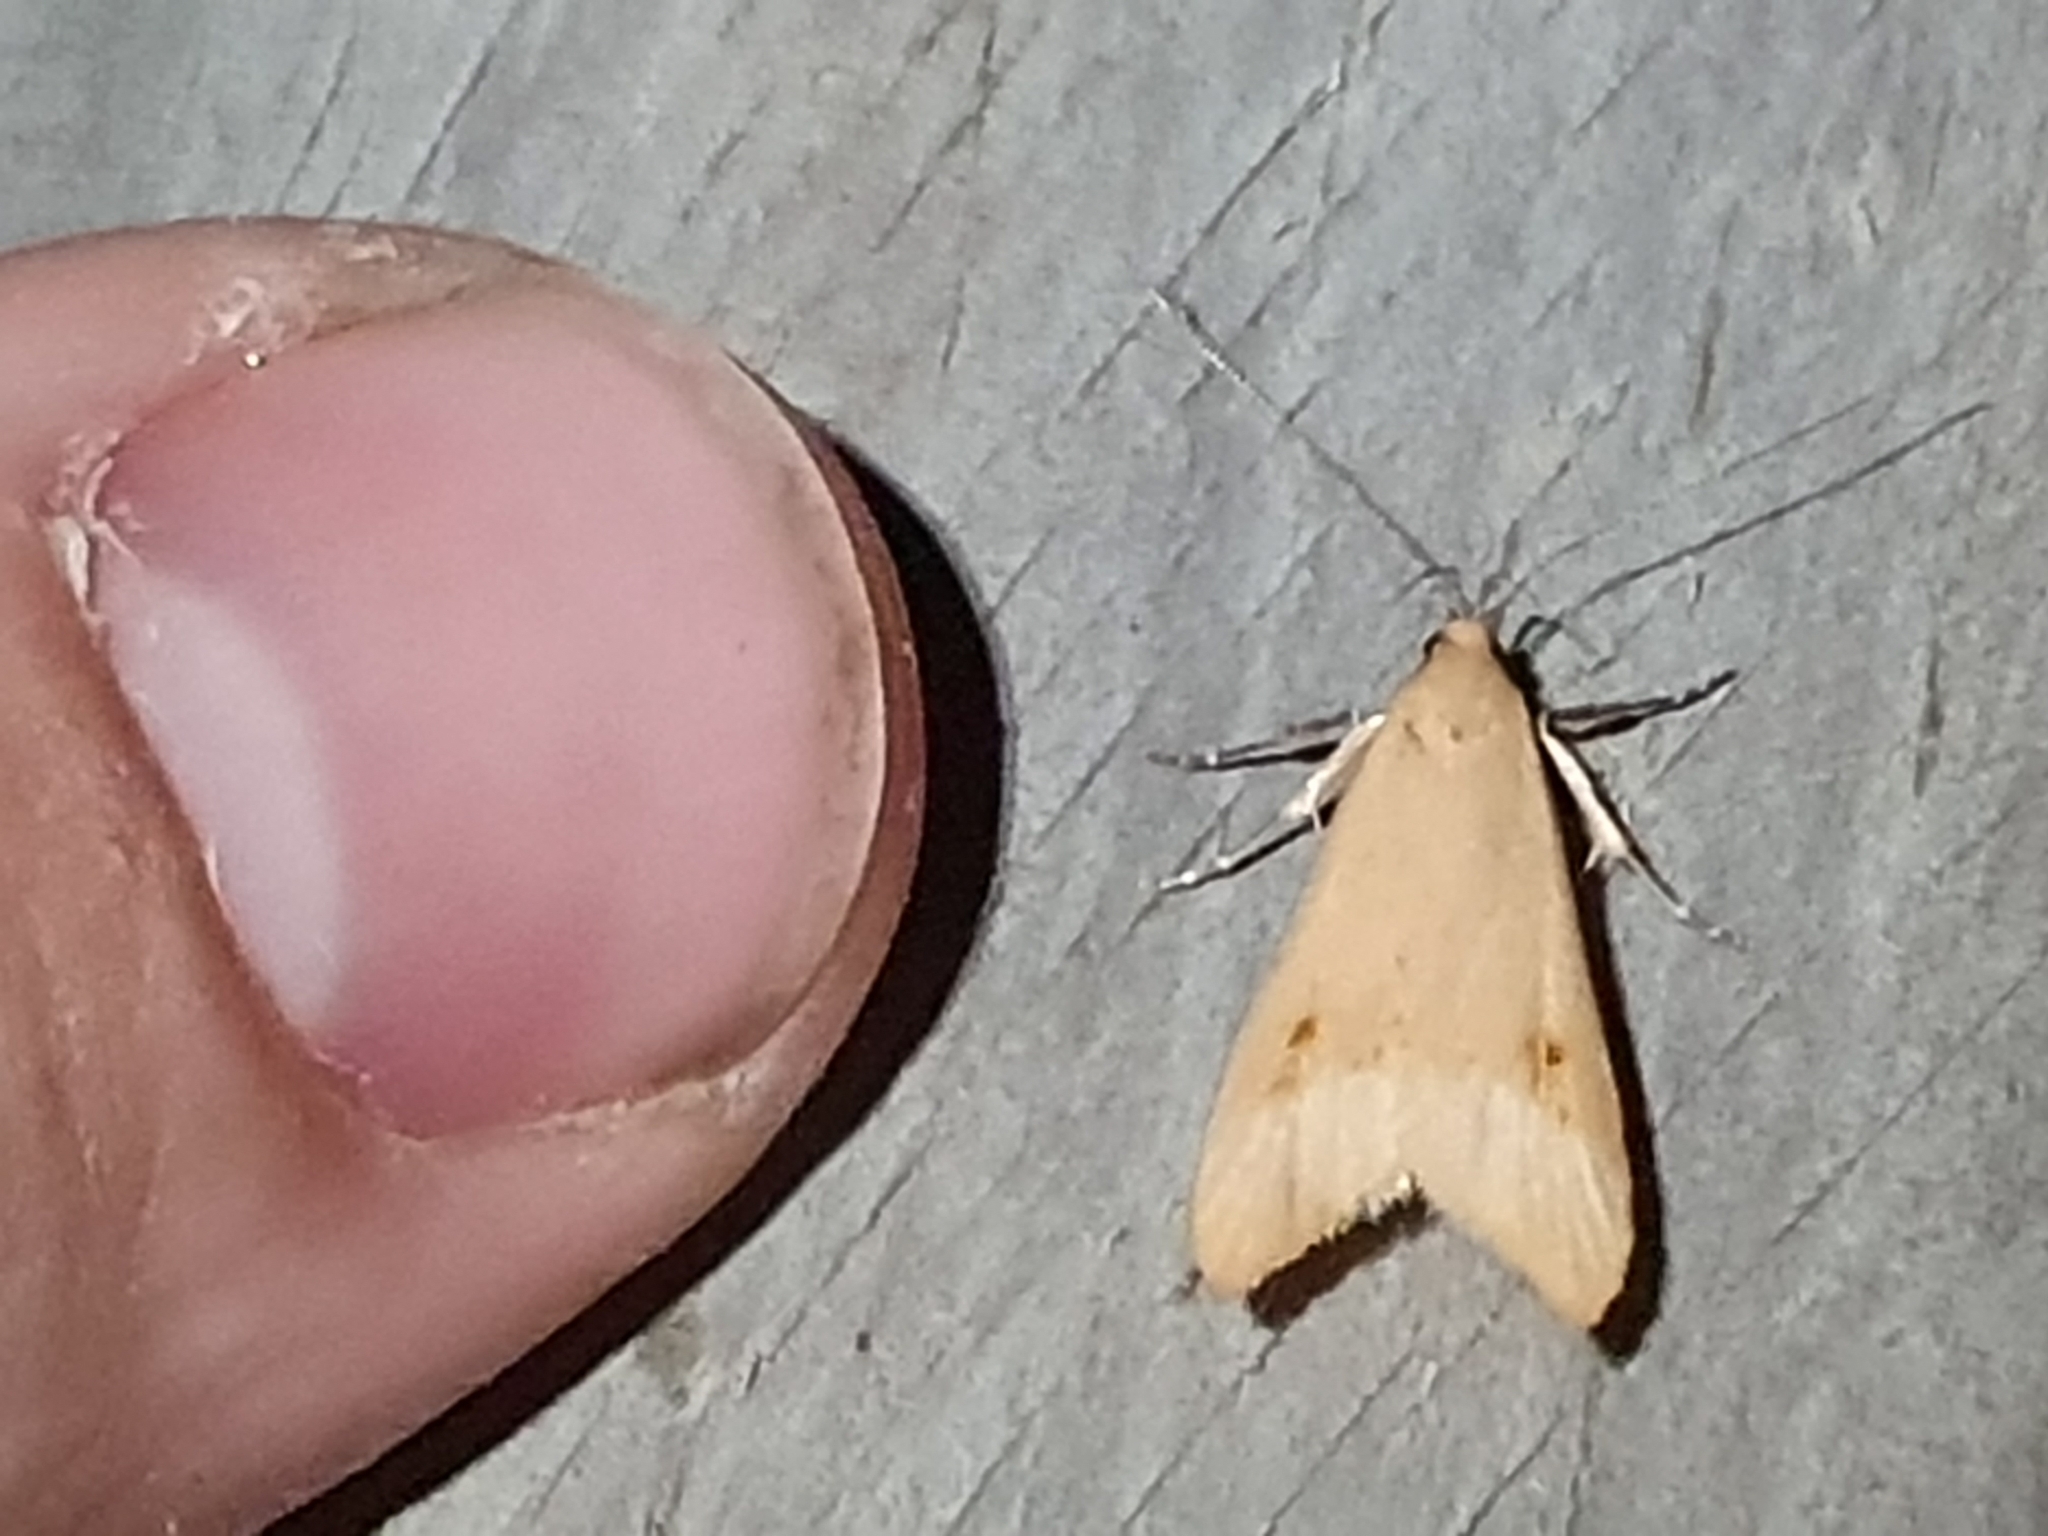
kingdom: Animalia
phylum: Arthropoda
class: Insecta
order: Lepidoptera
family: Oecophoridae
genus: Gymnobathra
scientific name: Gymnobathra hyetodes
